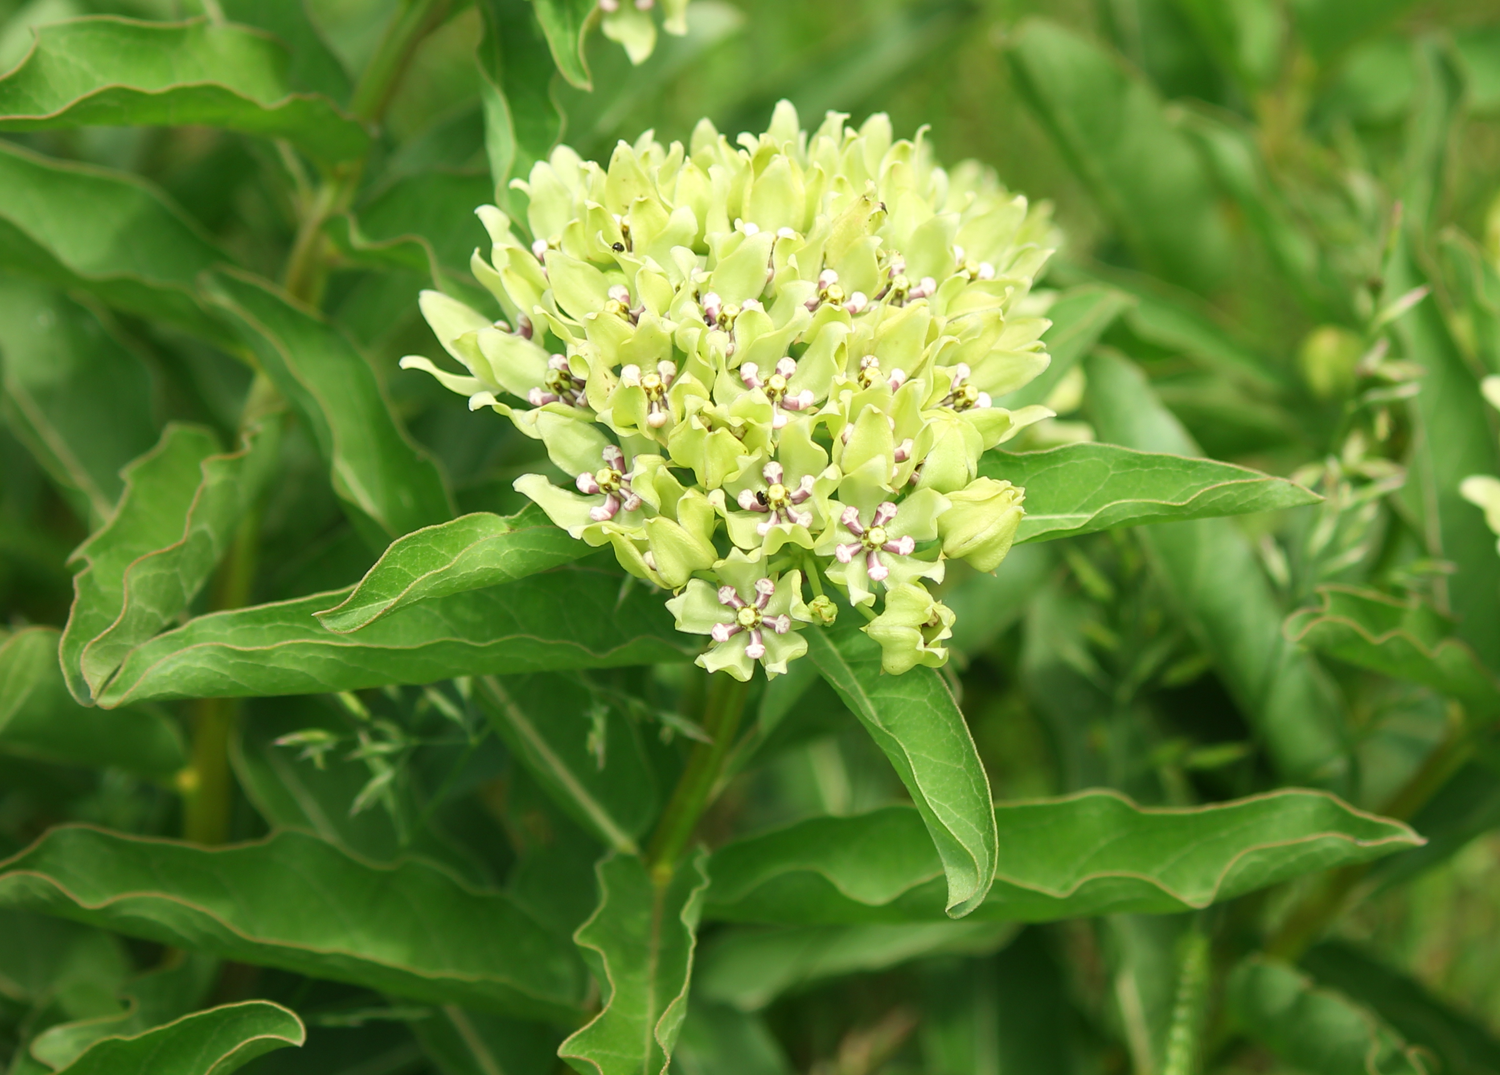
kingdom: Plantae
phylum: Tracheophyta
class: Magnoliopsida
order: Gentianales
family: Apocynaceae
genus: Asclepias
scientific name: Asclepias viridis
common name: Antelope-horns
